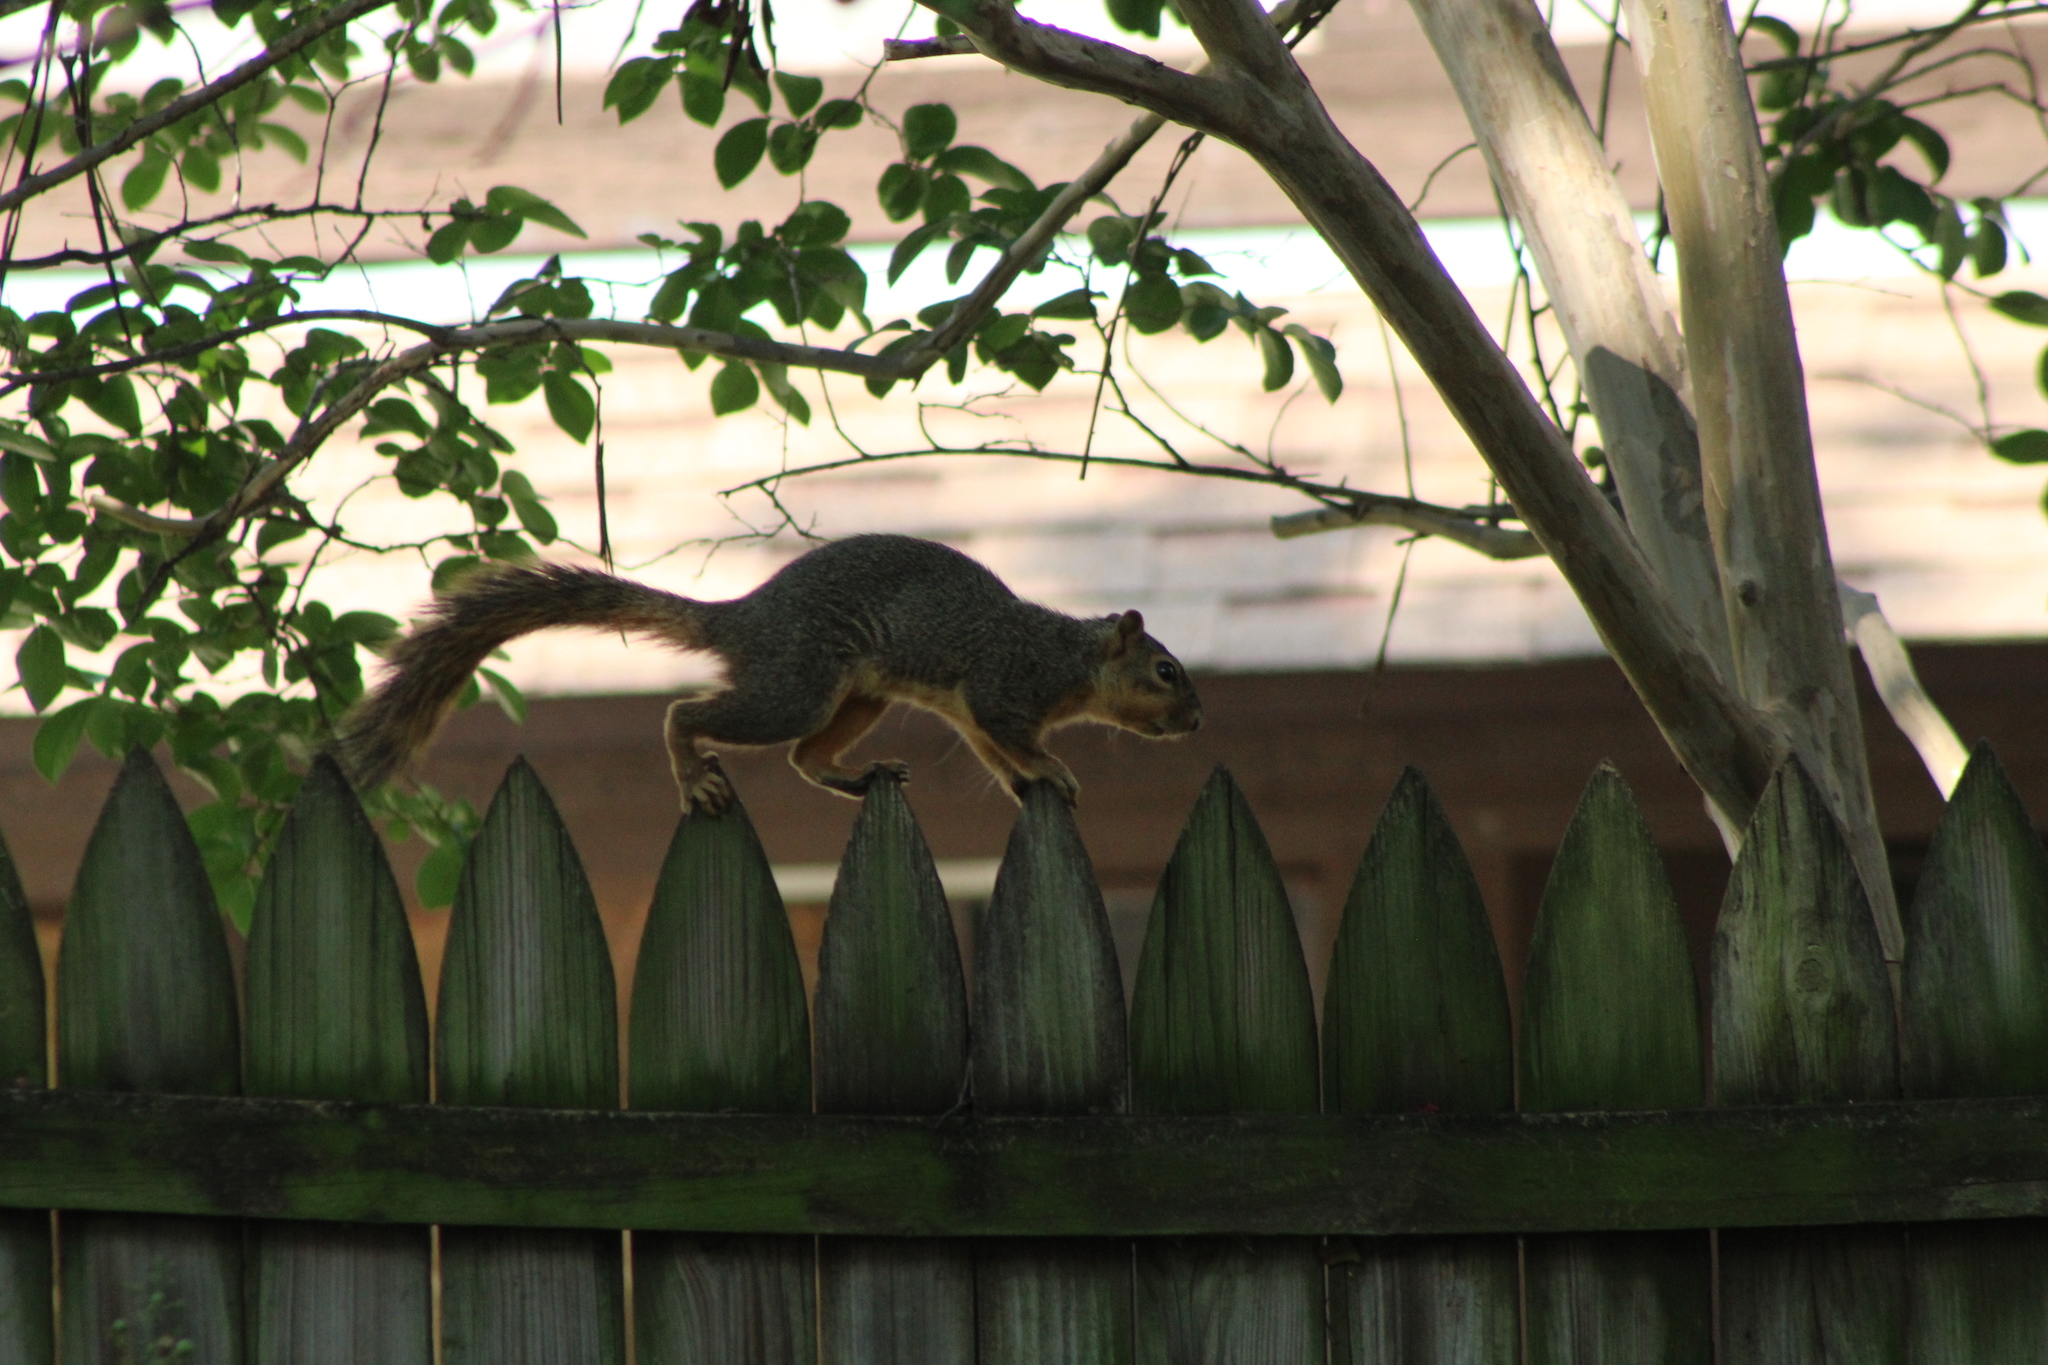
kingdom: Animalia
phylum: Chordata
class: Mammalia
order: Rodentia
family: Sciuridae
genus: Sciurus
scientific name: Sciurus niger
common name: Fox squirrel
